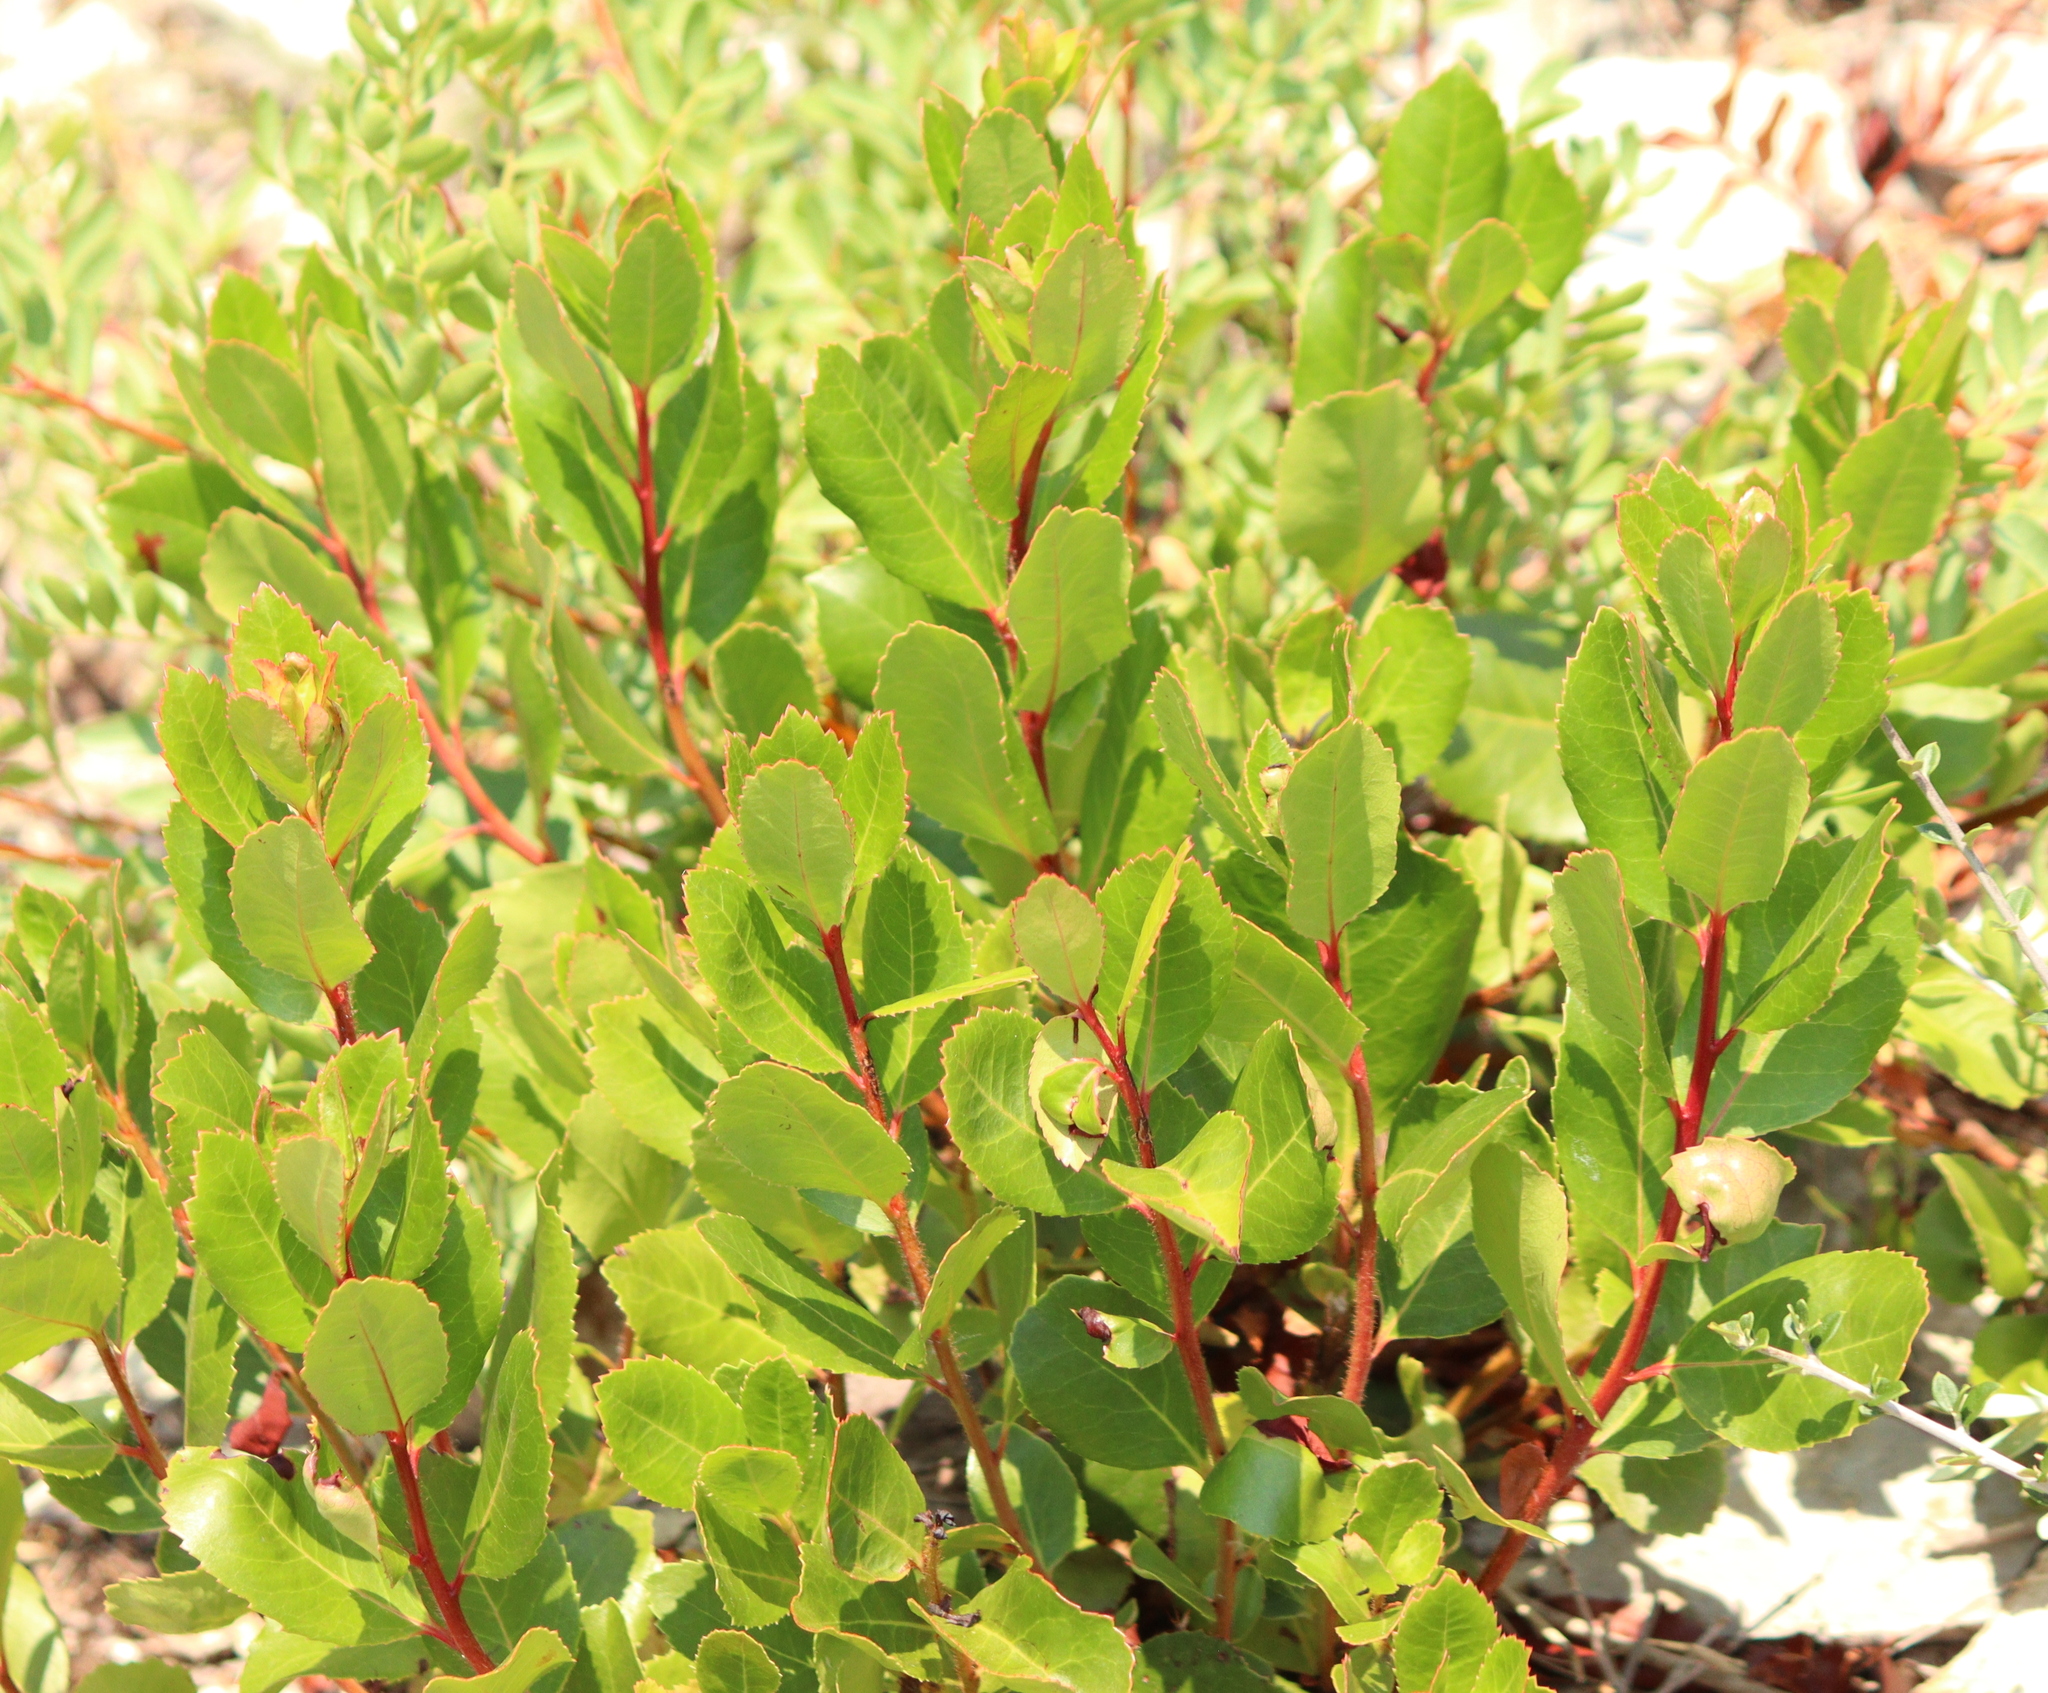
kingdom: Plantae
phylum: Tracheophyta
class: Magnoliopsida
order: Ericales
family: Ericaceae
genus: Arbutus
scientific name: Arbutus unedo
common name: Strawberry-tree
